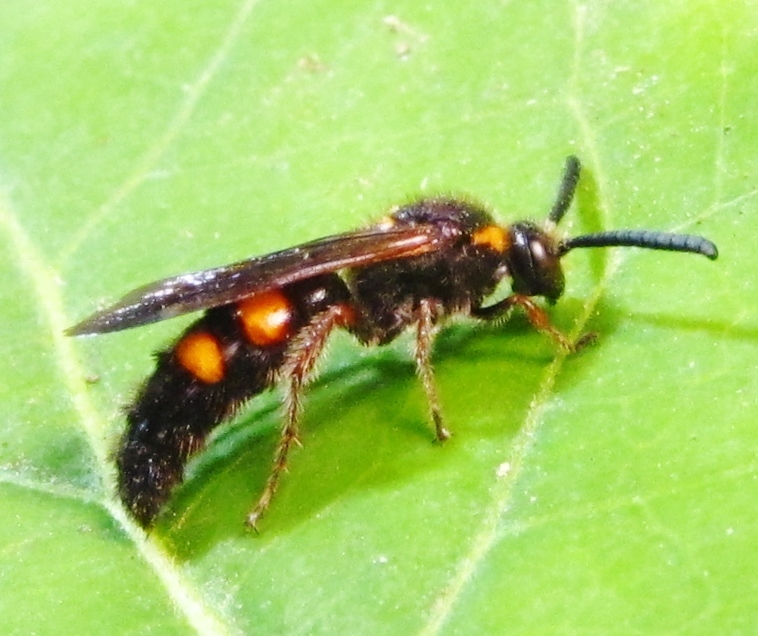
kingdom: Animalia
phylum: Arthropoda
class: Insecta
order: Hymenoptera
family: Scoliidae
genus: Scolia
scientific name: Scolia nobilitata
